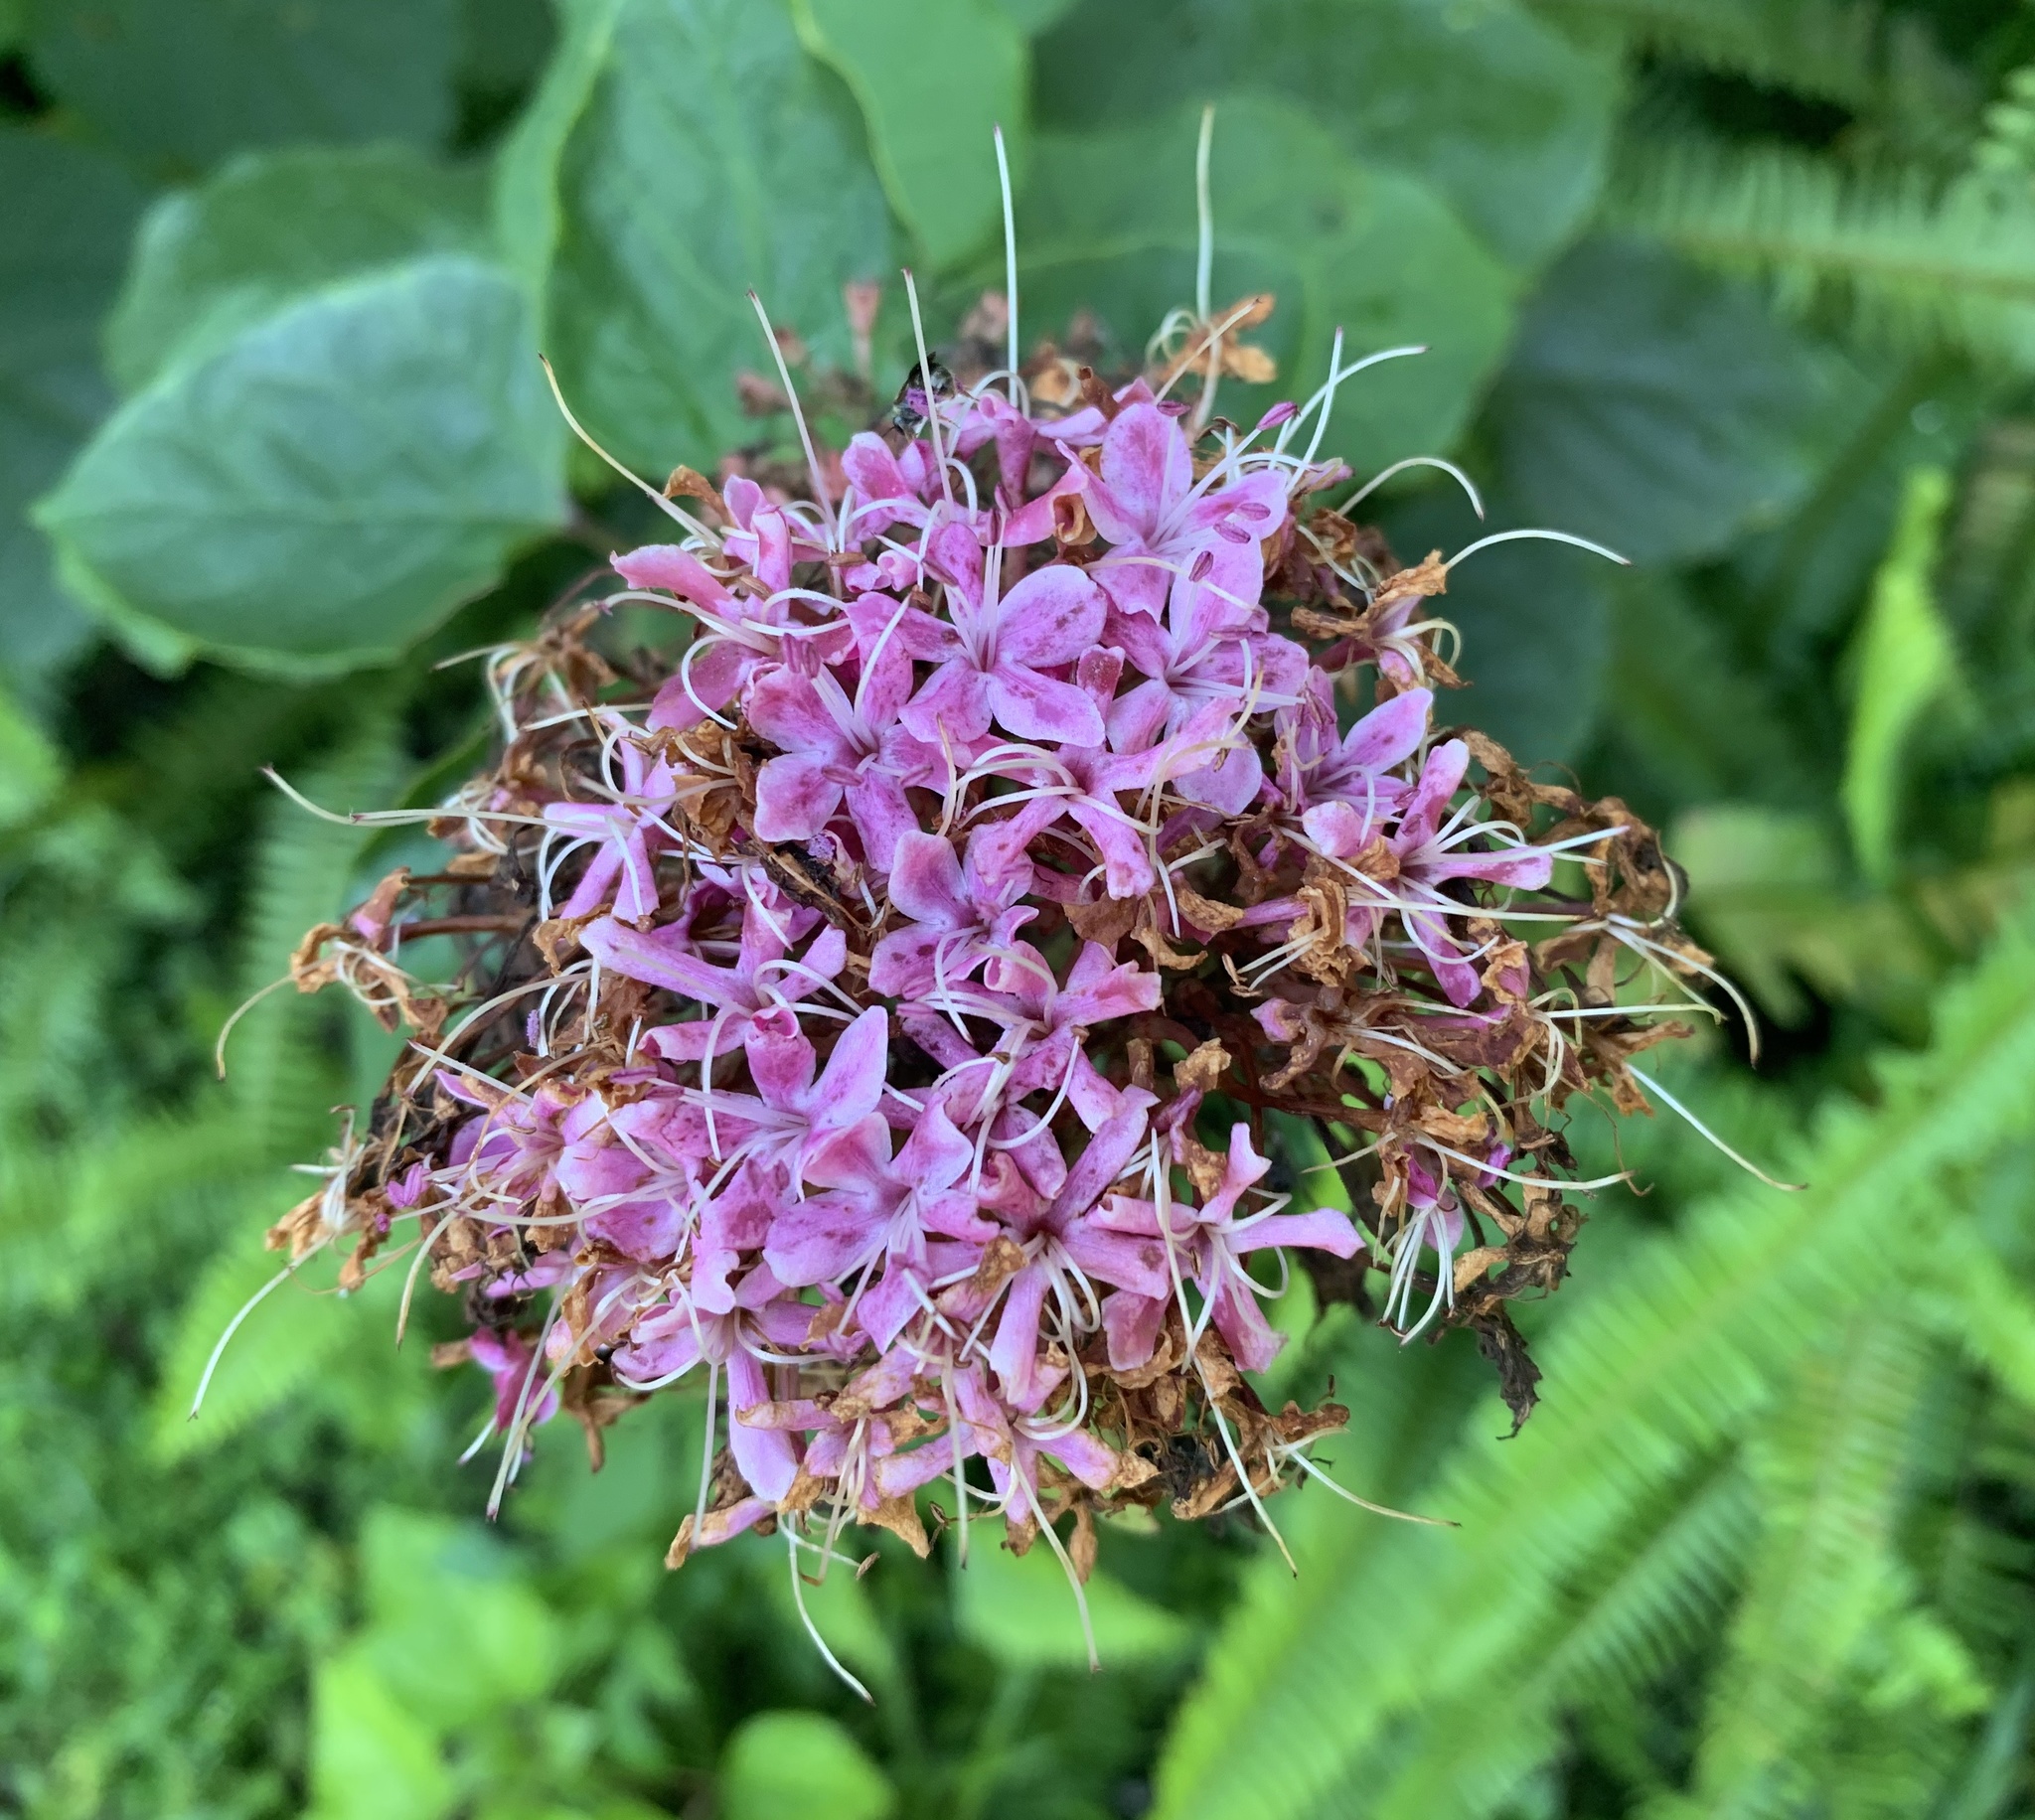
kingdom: Plantae
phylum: Tracheophyta
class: Magnoliopsida
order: Lamiales
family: Lamiaceae
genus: Clerodendrum
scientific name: Clerodendrum bungei
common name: Rose glorybower
